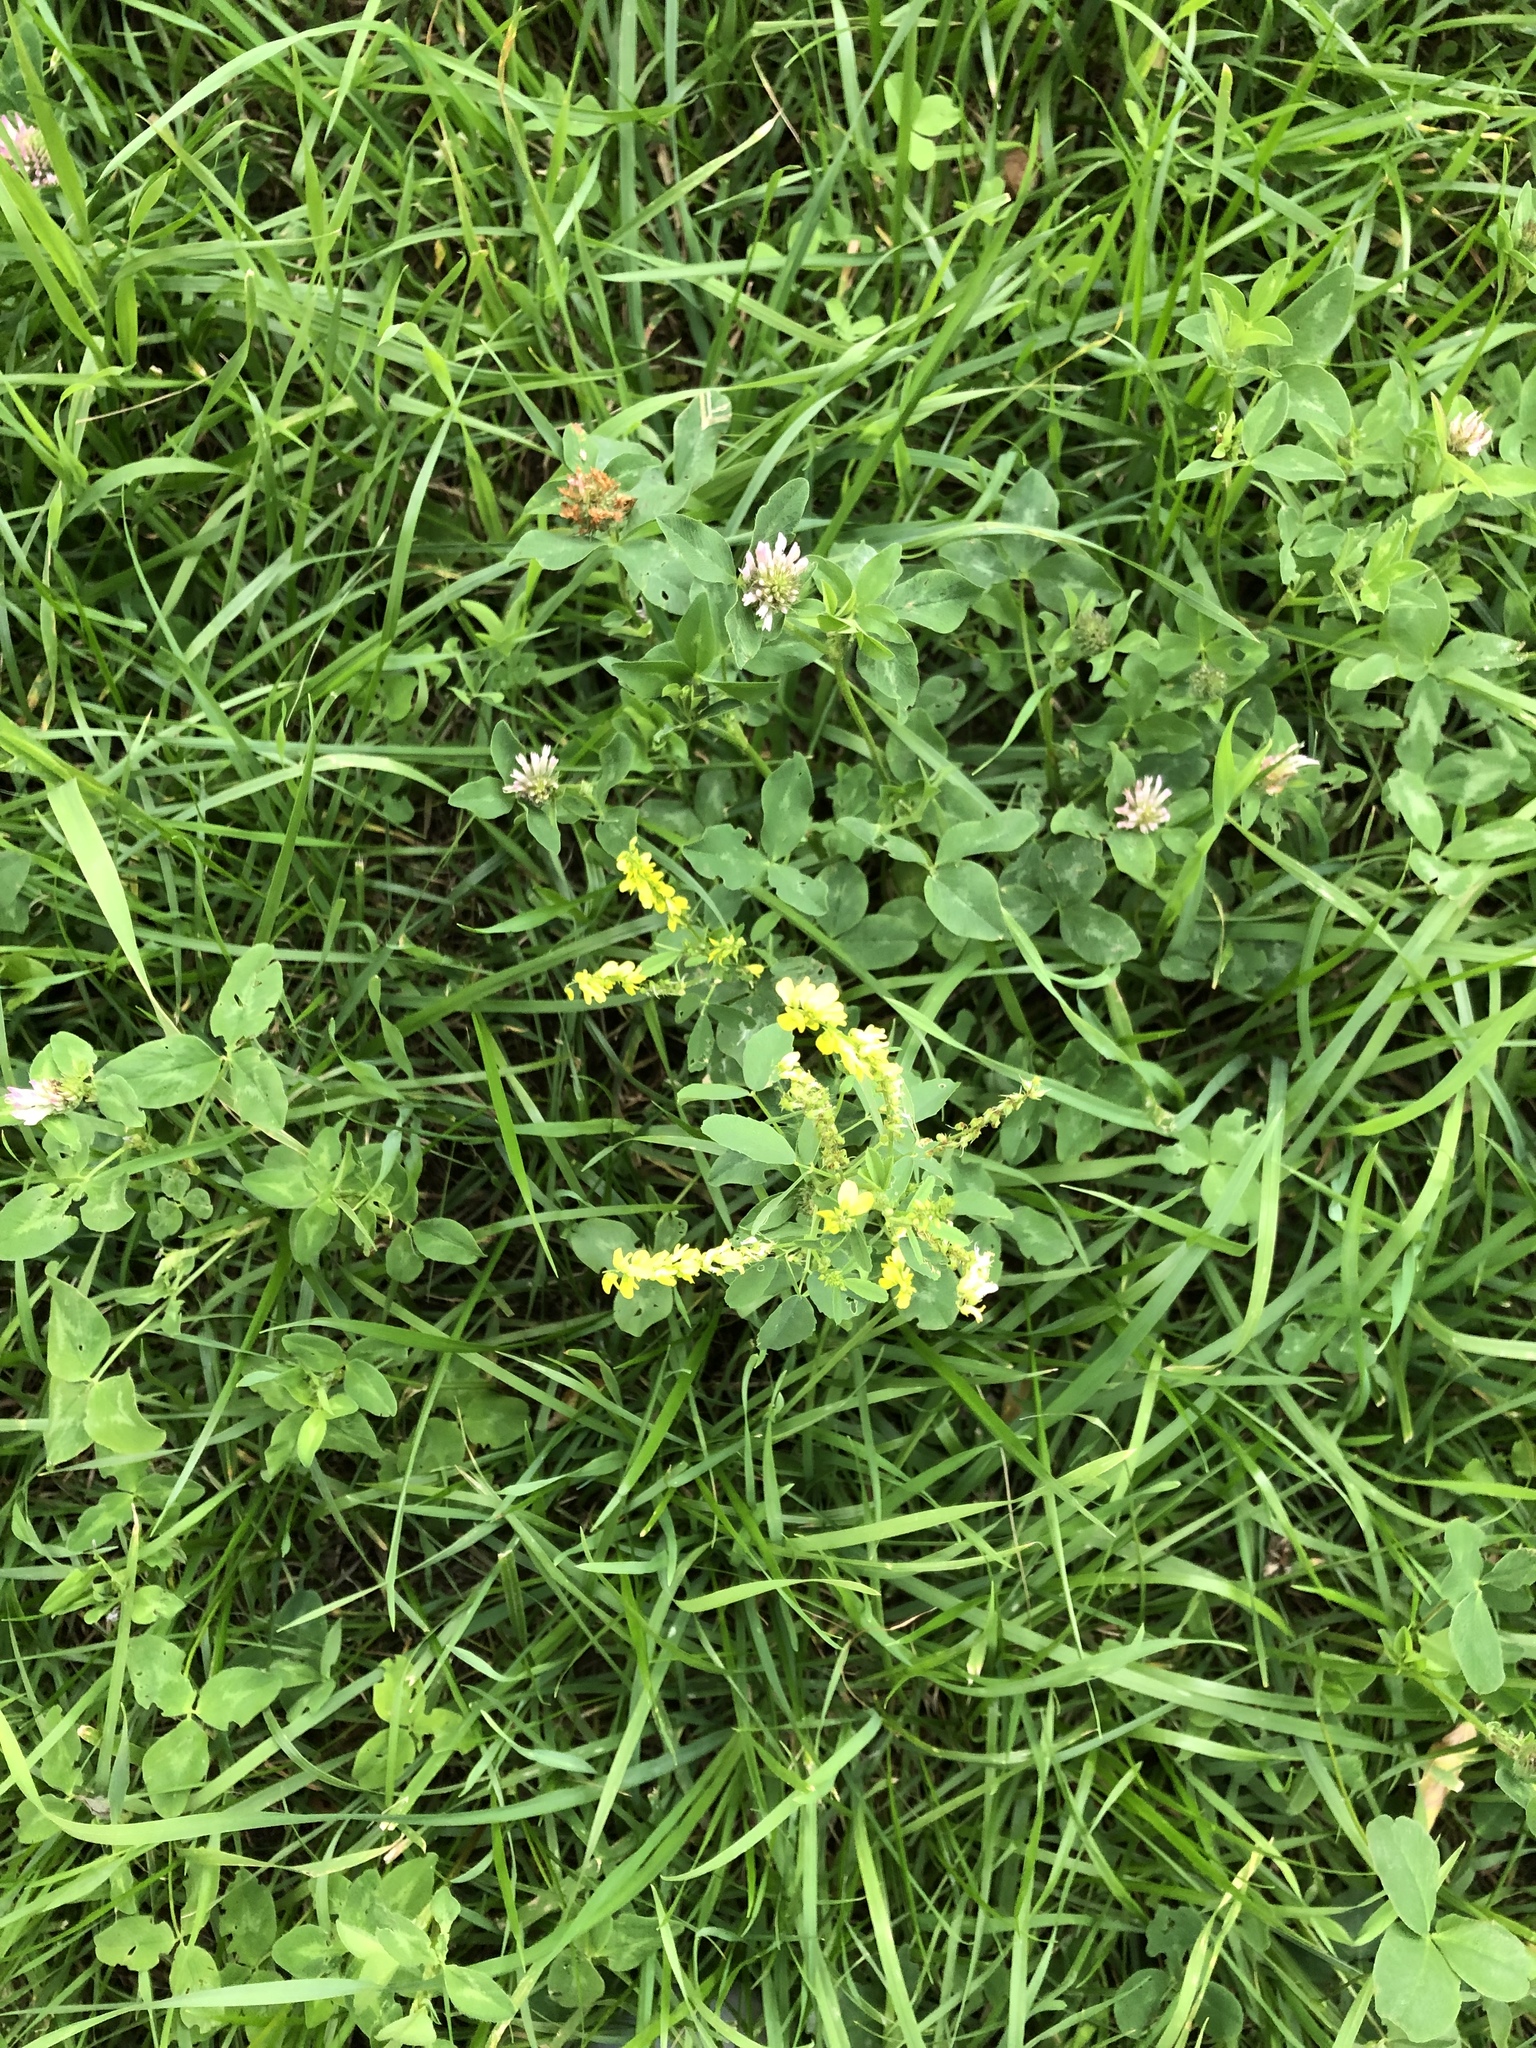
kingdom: Plantae
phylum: Tracheophyta
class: Magnoliopsida
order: Fabales
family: Fabaceae
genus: Melilotus
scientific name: Melilotus officinalis
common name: Sweetclover
